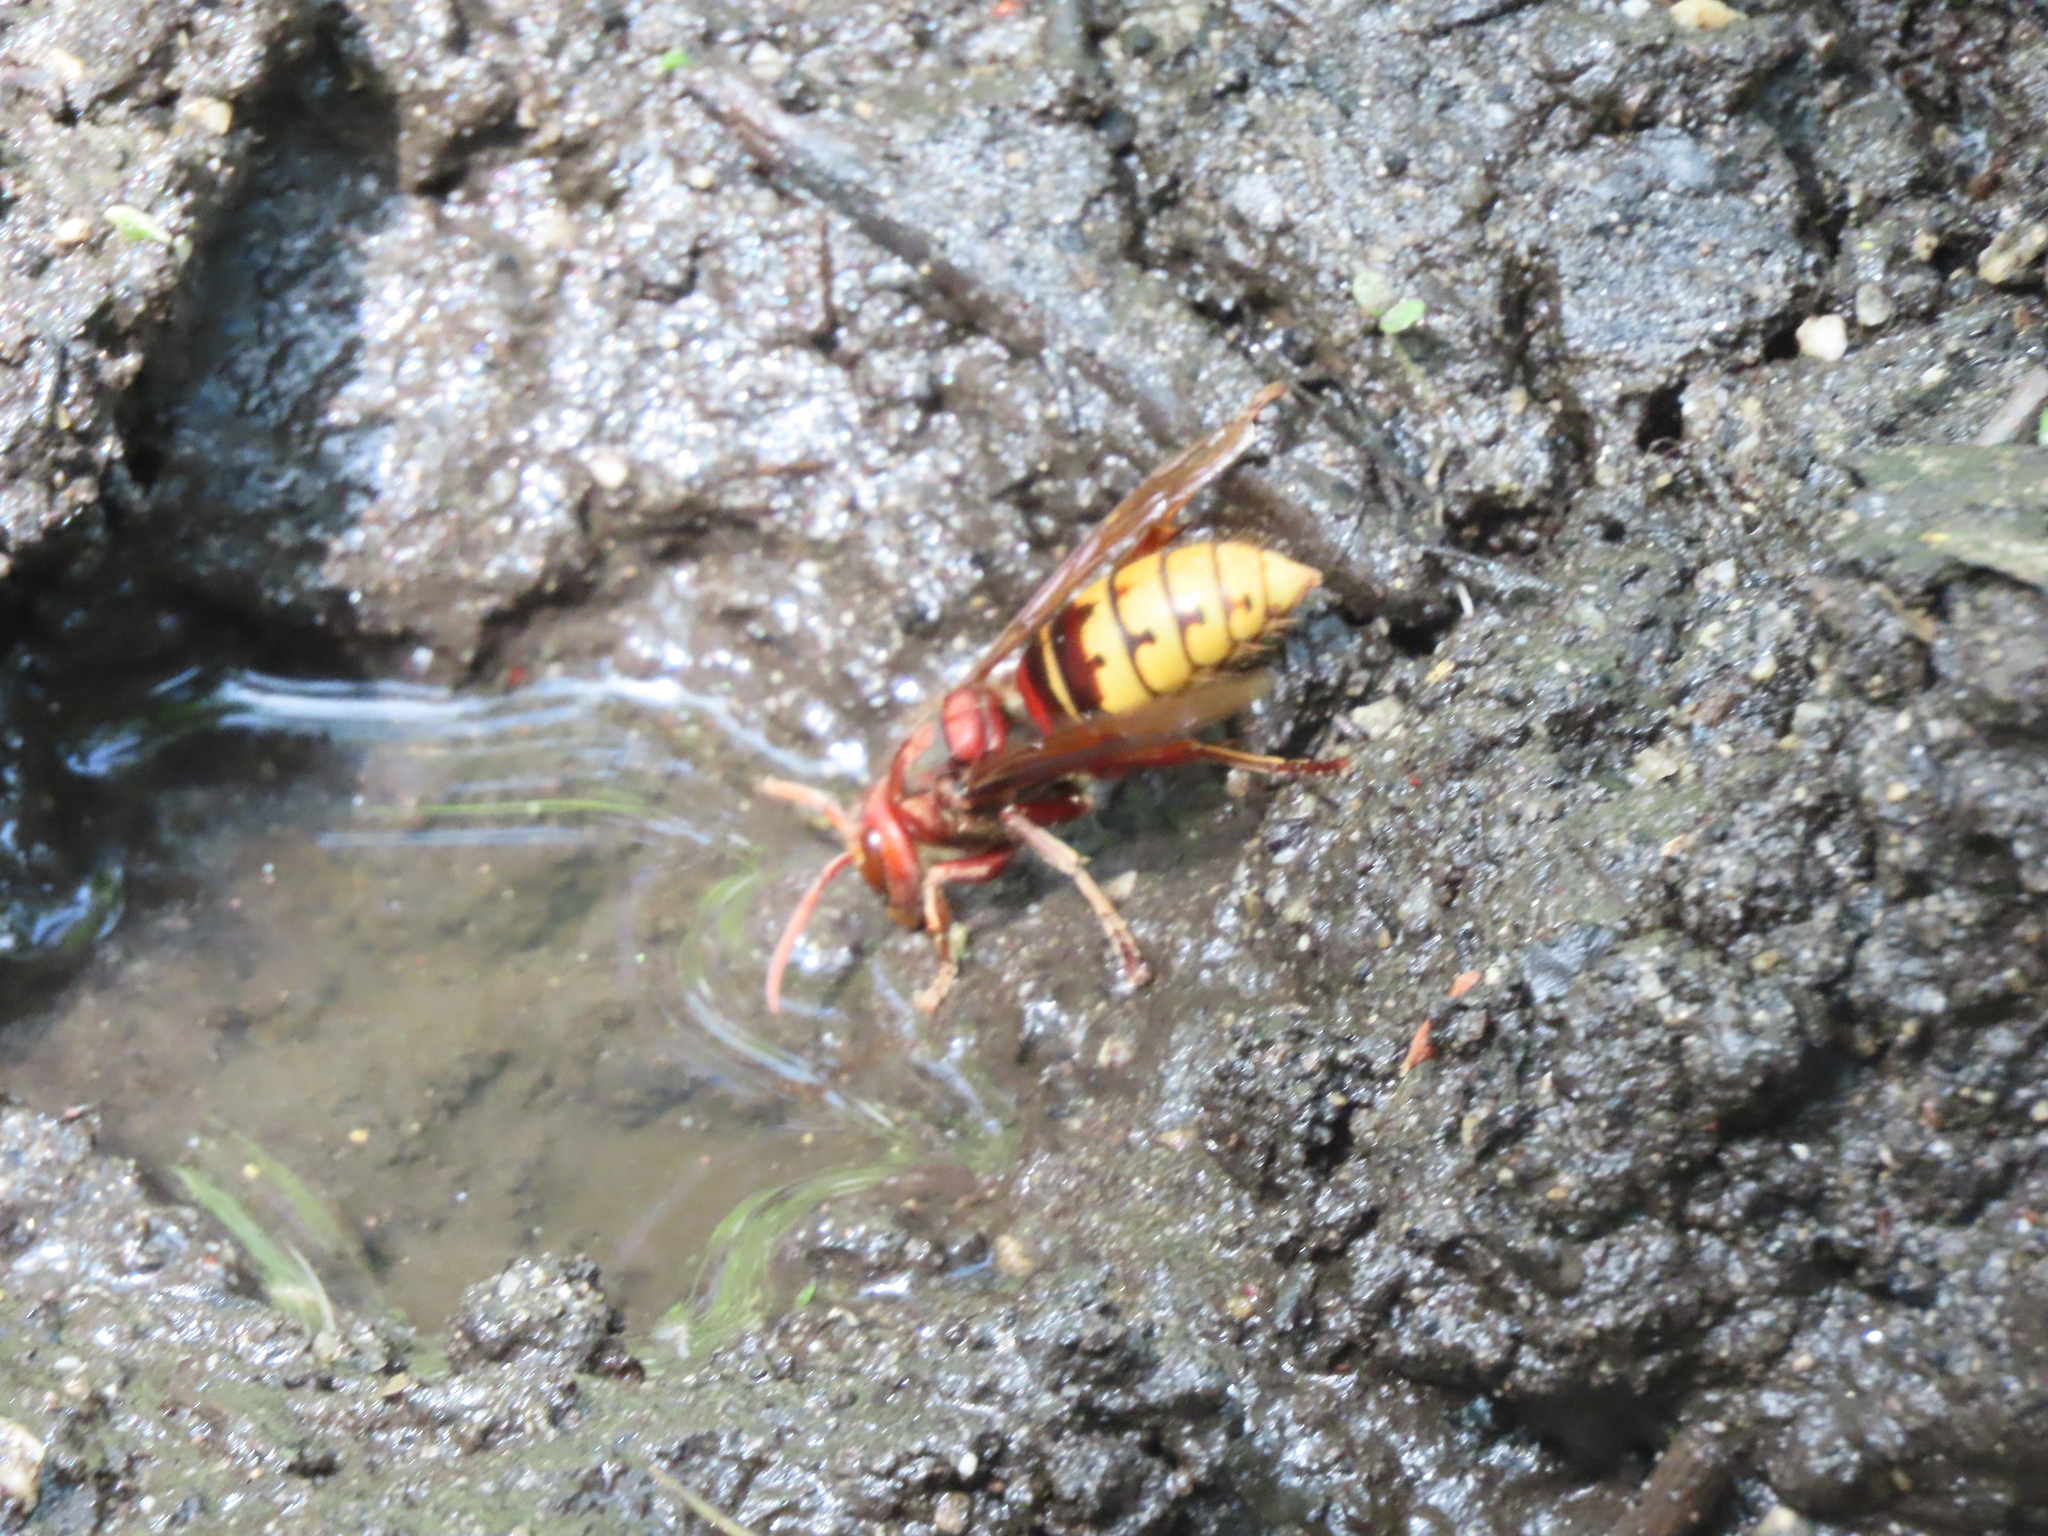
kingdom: Animalia
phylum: Arthropoda
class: Insecta
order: Hymenoptera
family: Vespidae
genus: Vespa
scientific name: Vespa crabro
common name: Hornet
